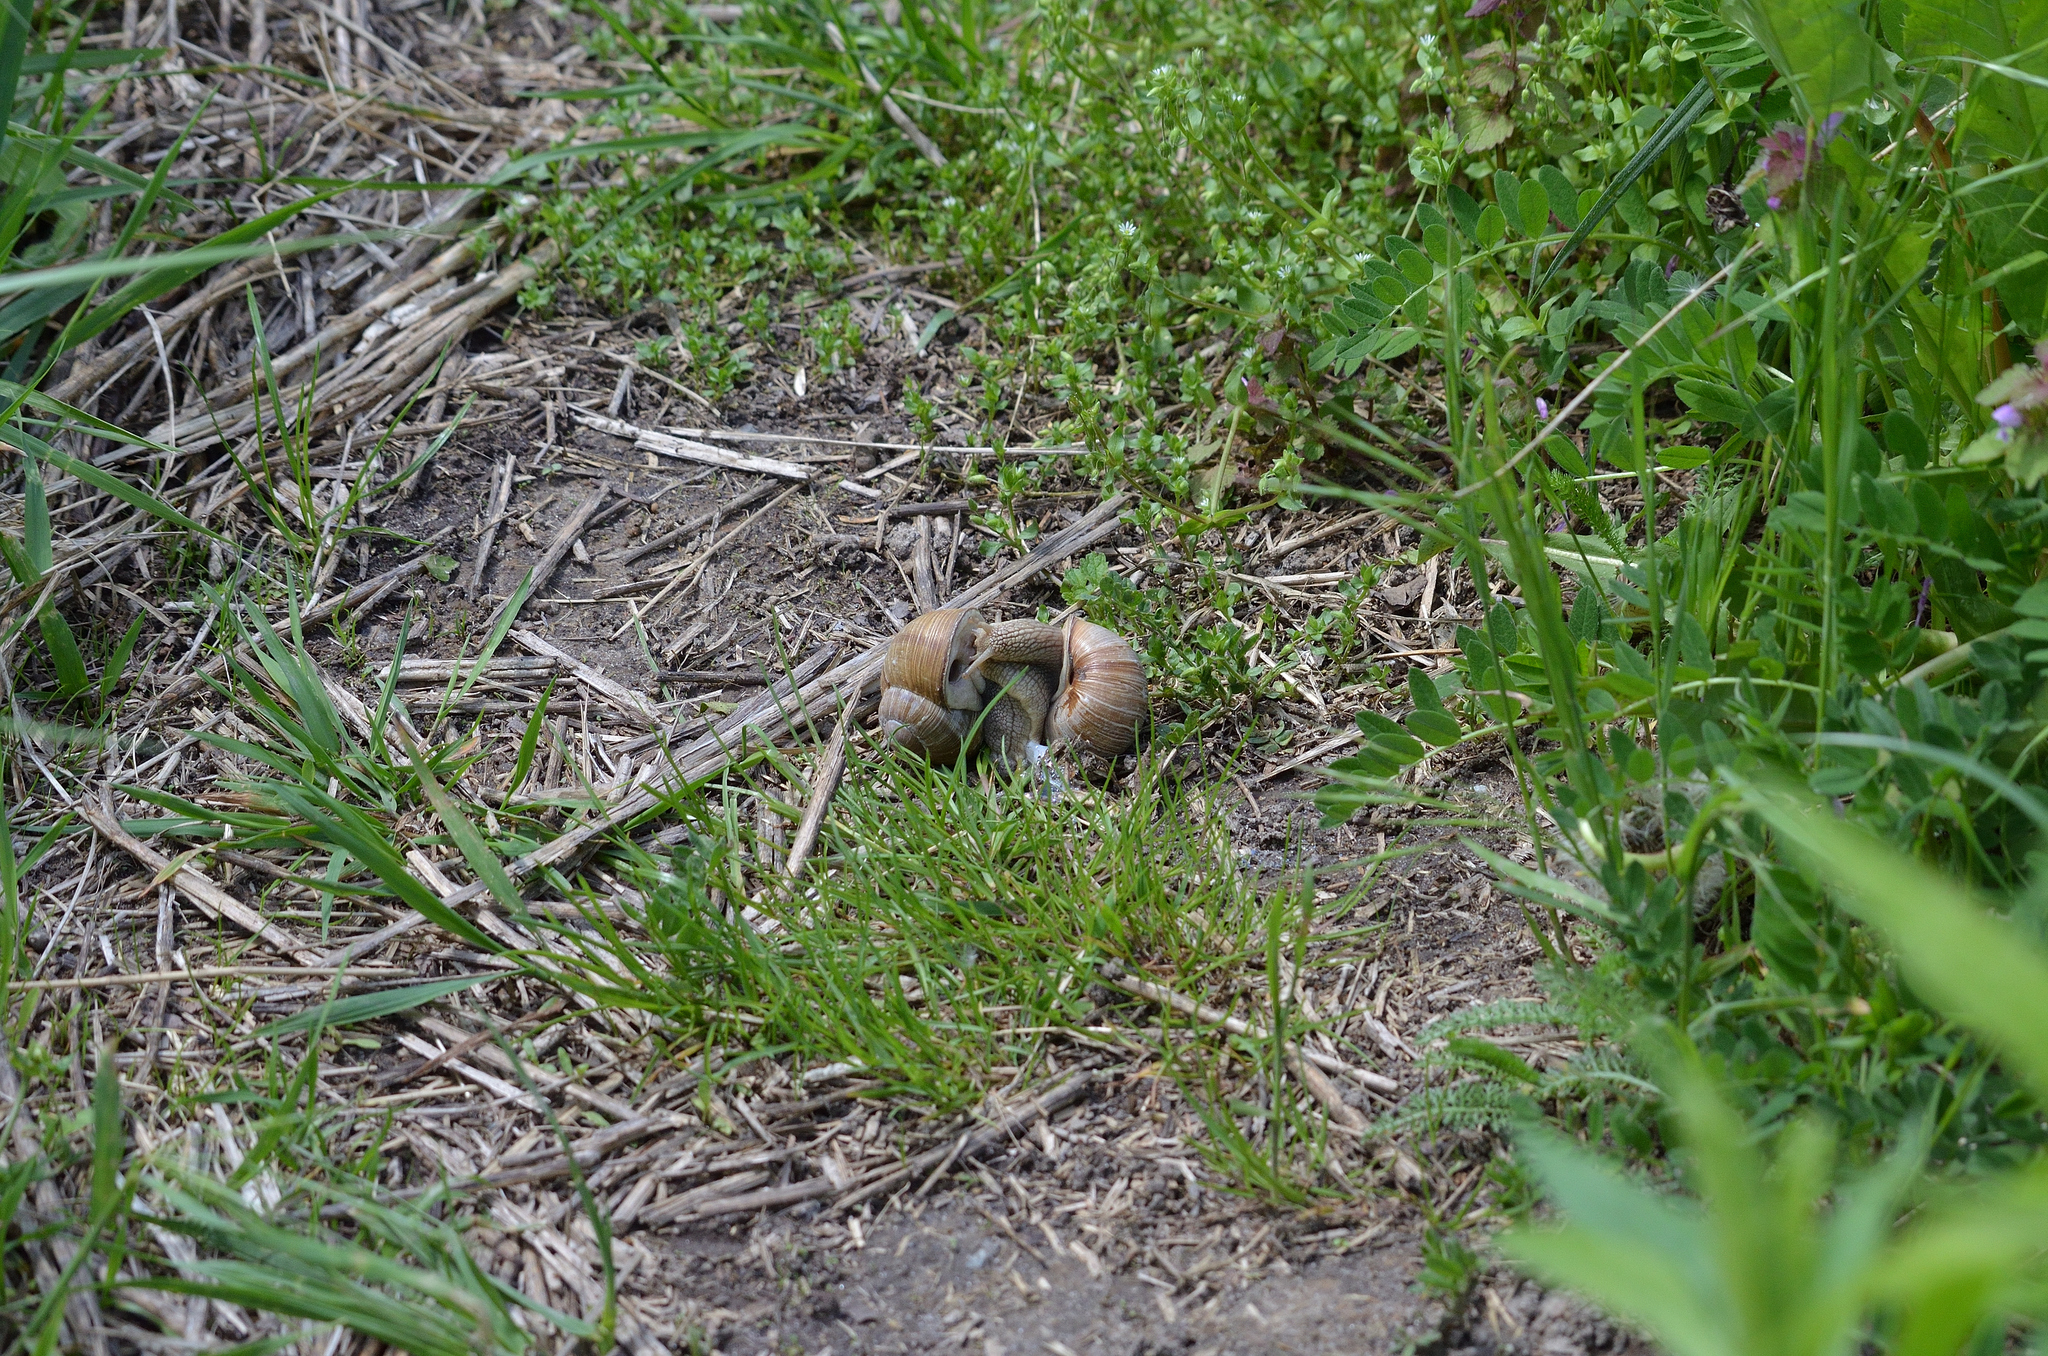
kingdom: Animalia
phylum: Mollusca
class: Gastropoda
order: Stylommatophora
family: Helicidae
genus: Helix
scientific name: Helix pomatia
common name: Roman snail
